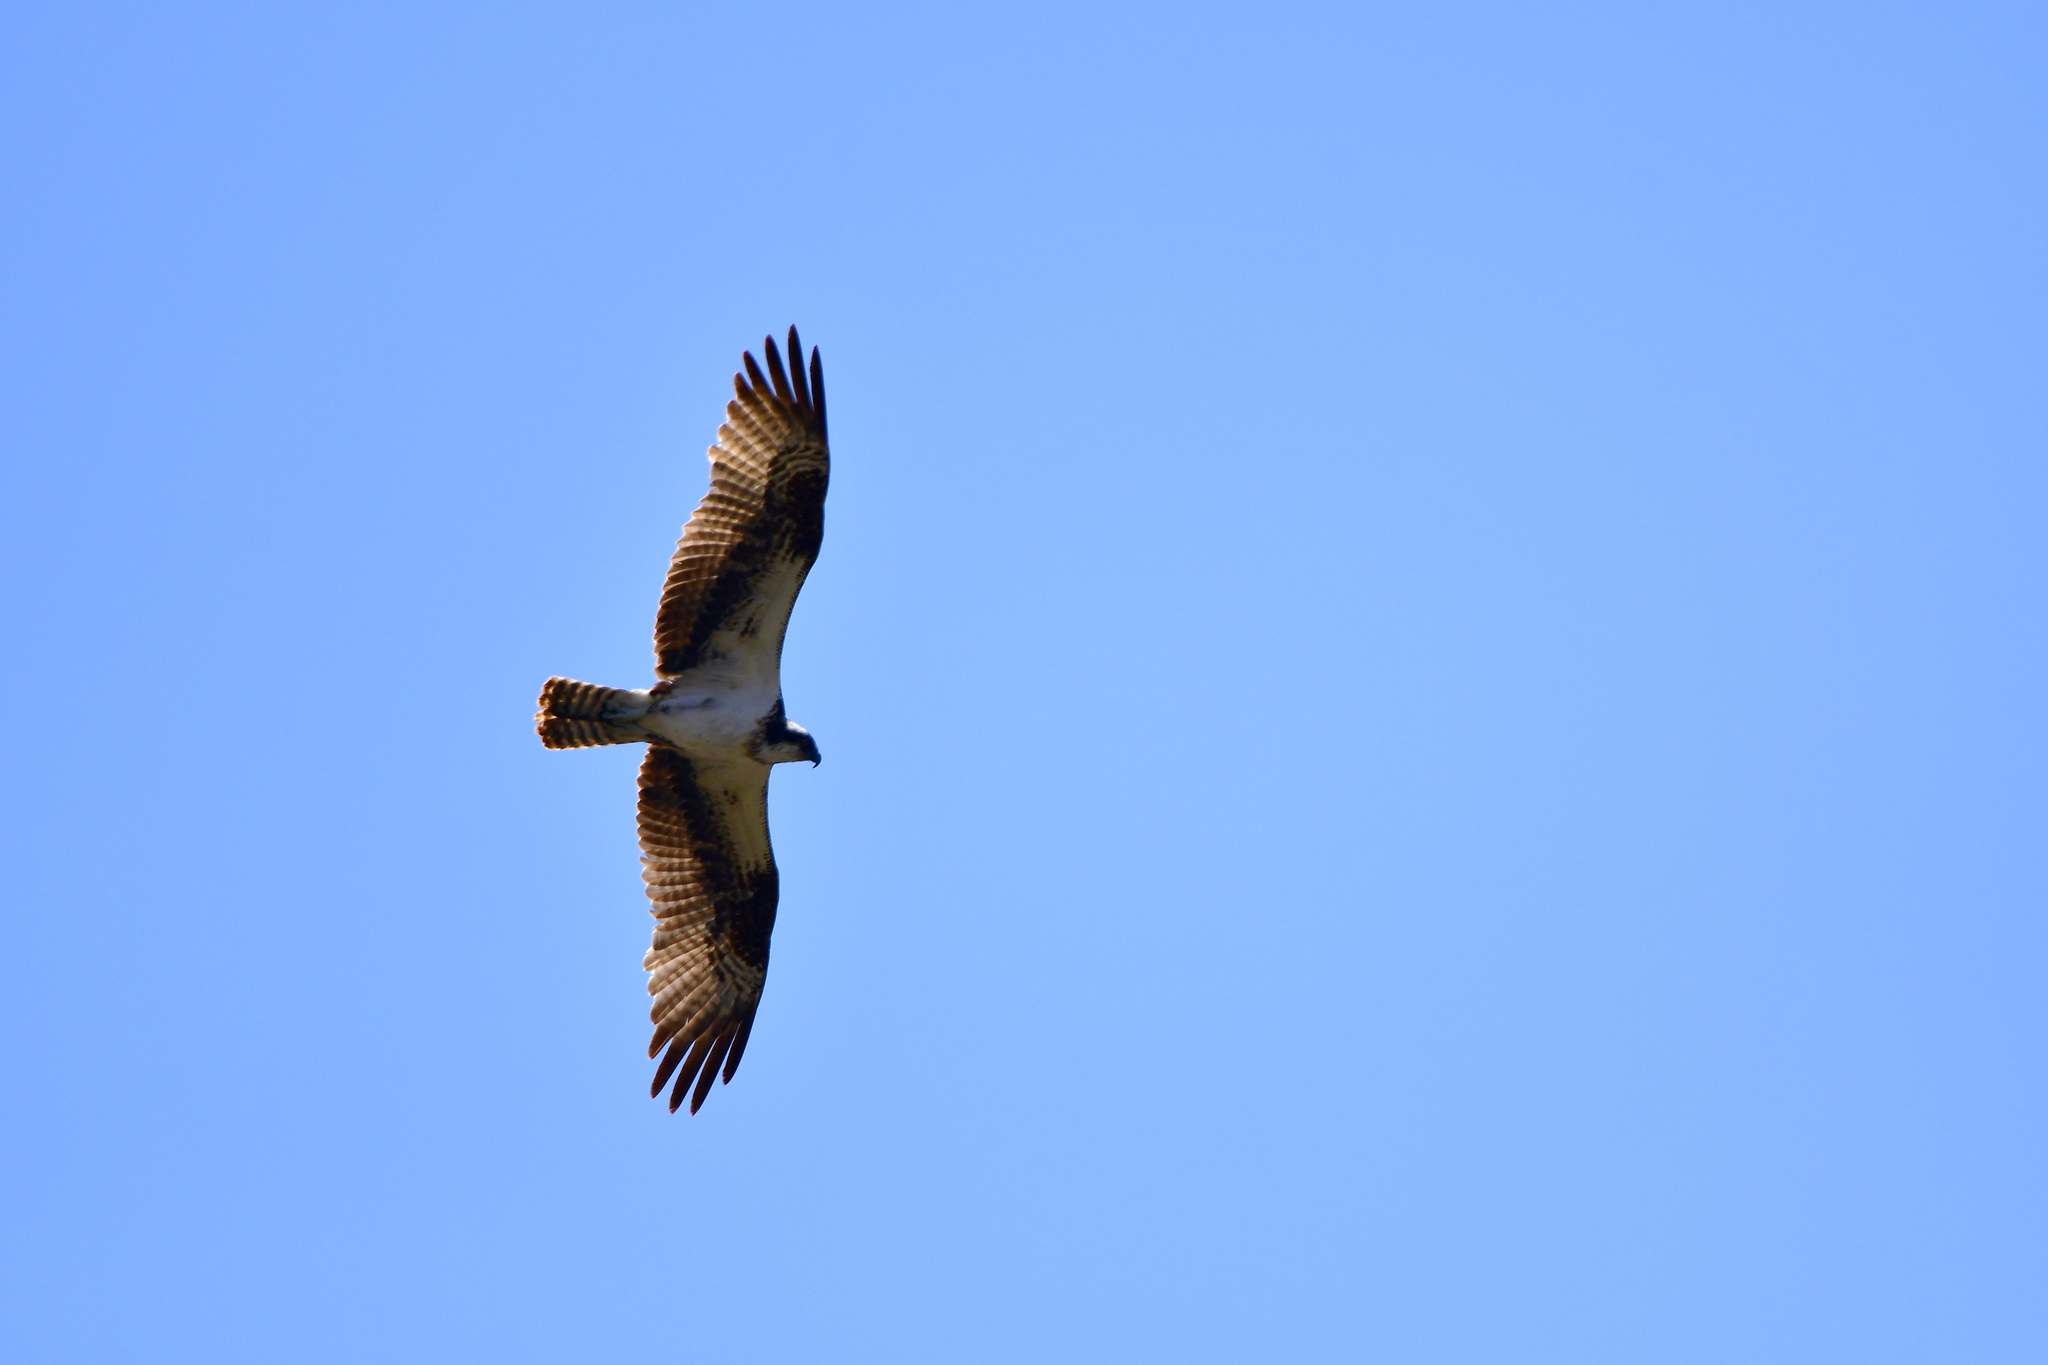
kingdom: Animalia
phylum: Chordata
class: Aves
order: Accipitriformes
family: Pandionidae
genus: Pandion
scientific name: Pandion haliaetus
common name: Osprey
